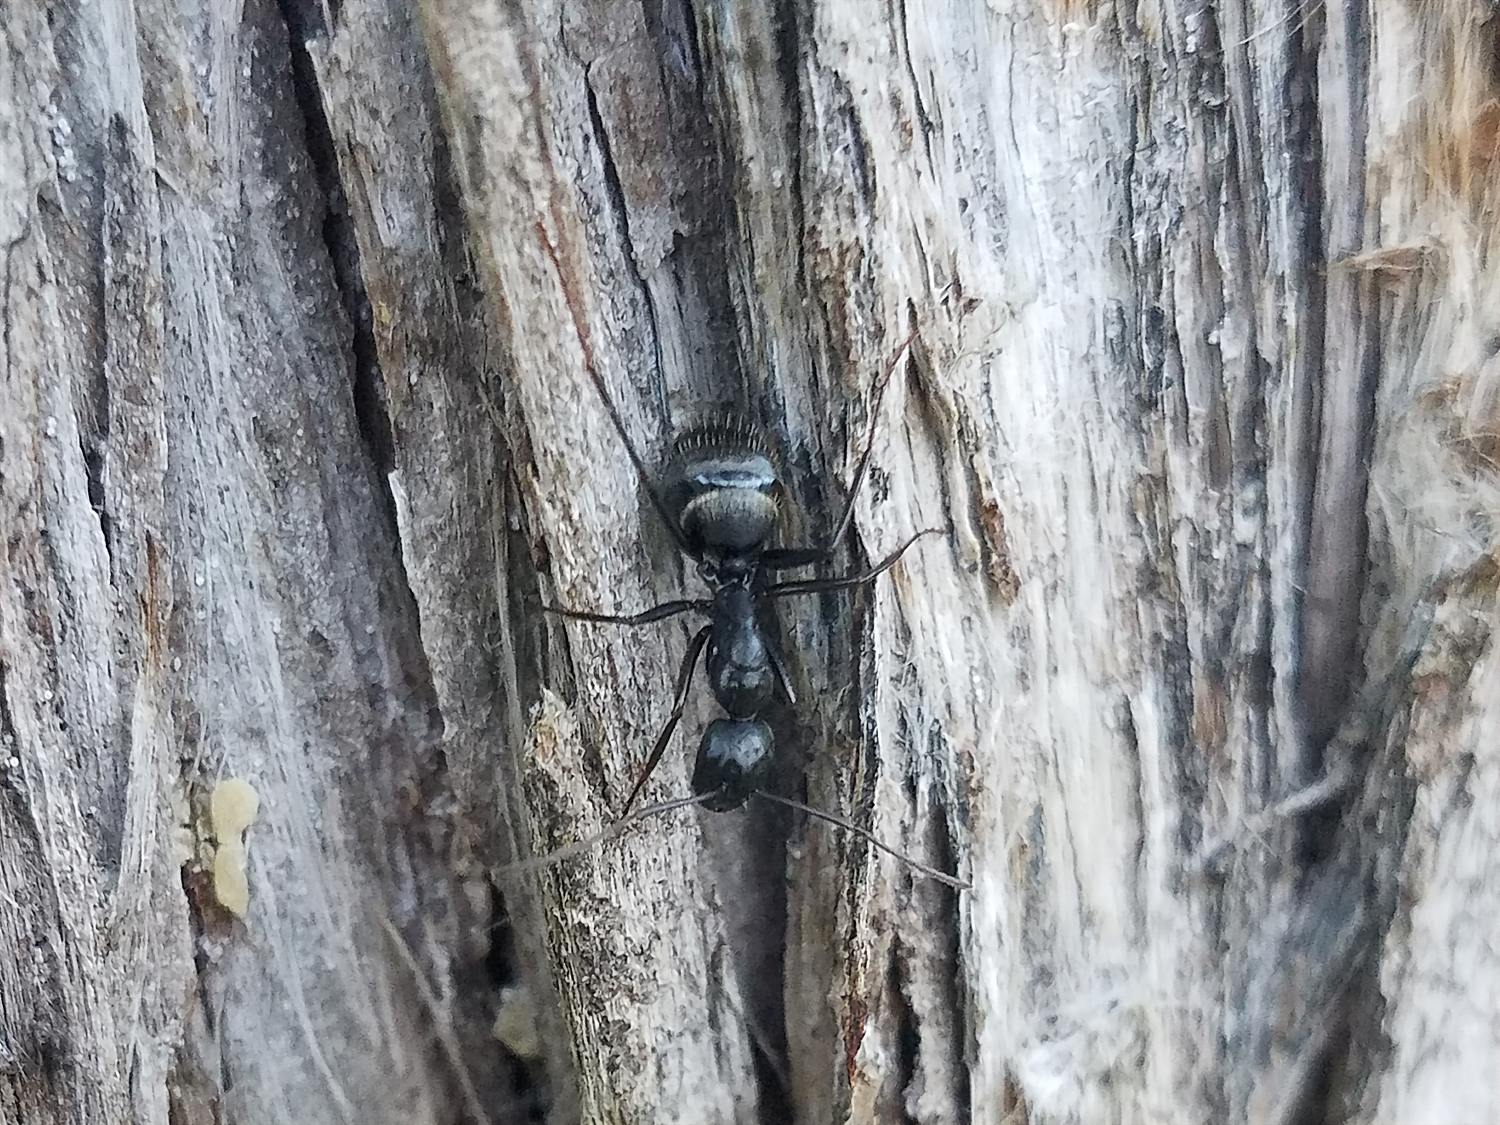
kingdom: Animalia
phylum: Arthropoda
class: Insecta
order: Hymenoptera
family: Formicidae
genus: Camponotus
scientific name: Camponotus pennsylvanicus
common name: Black carpenter ant
